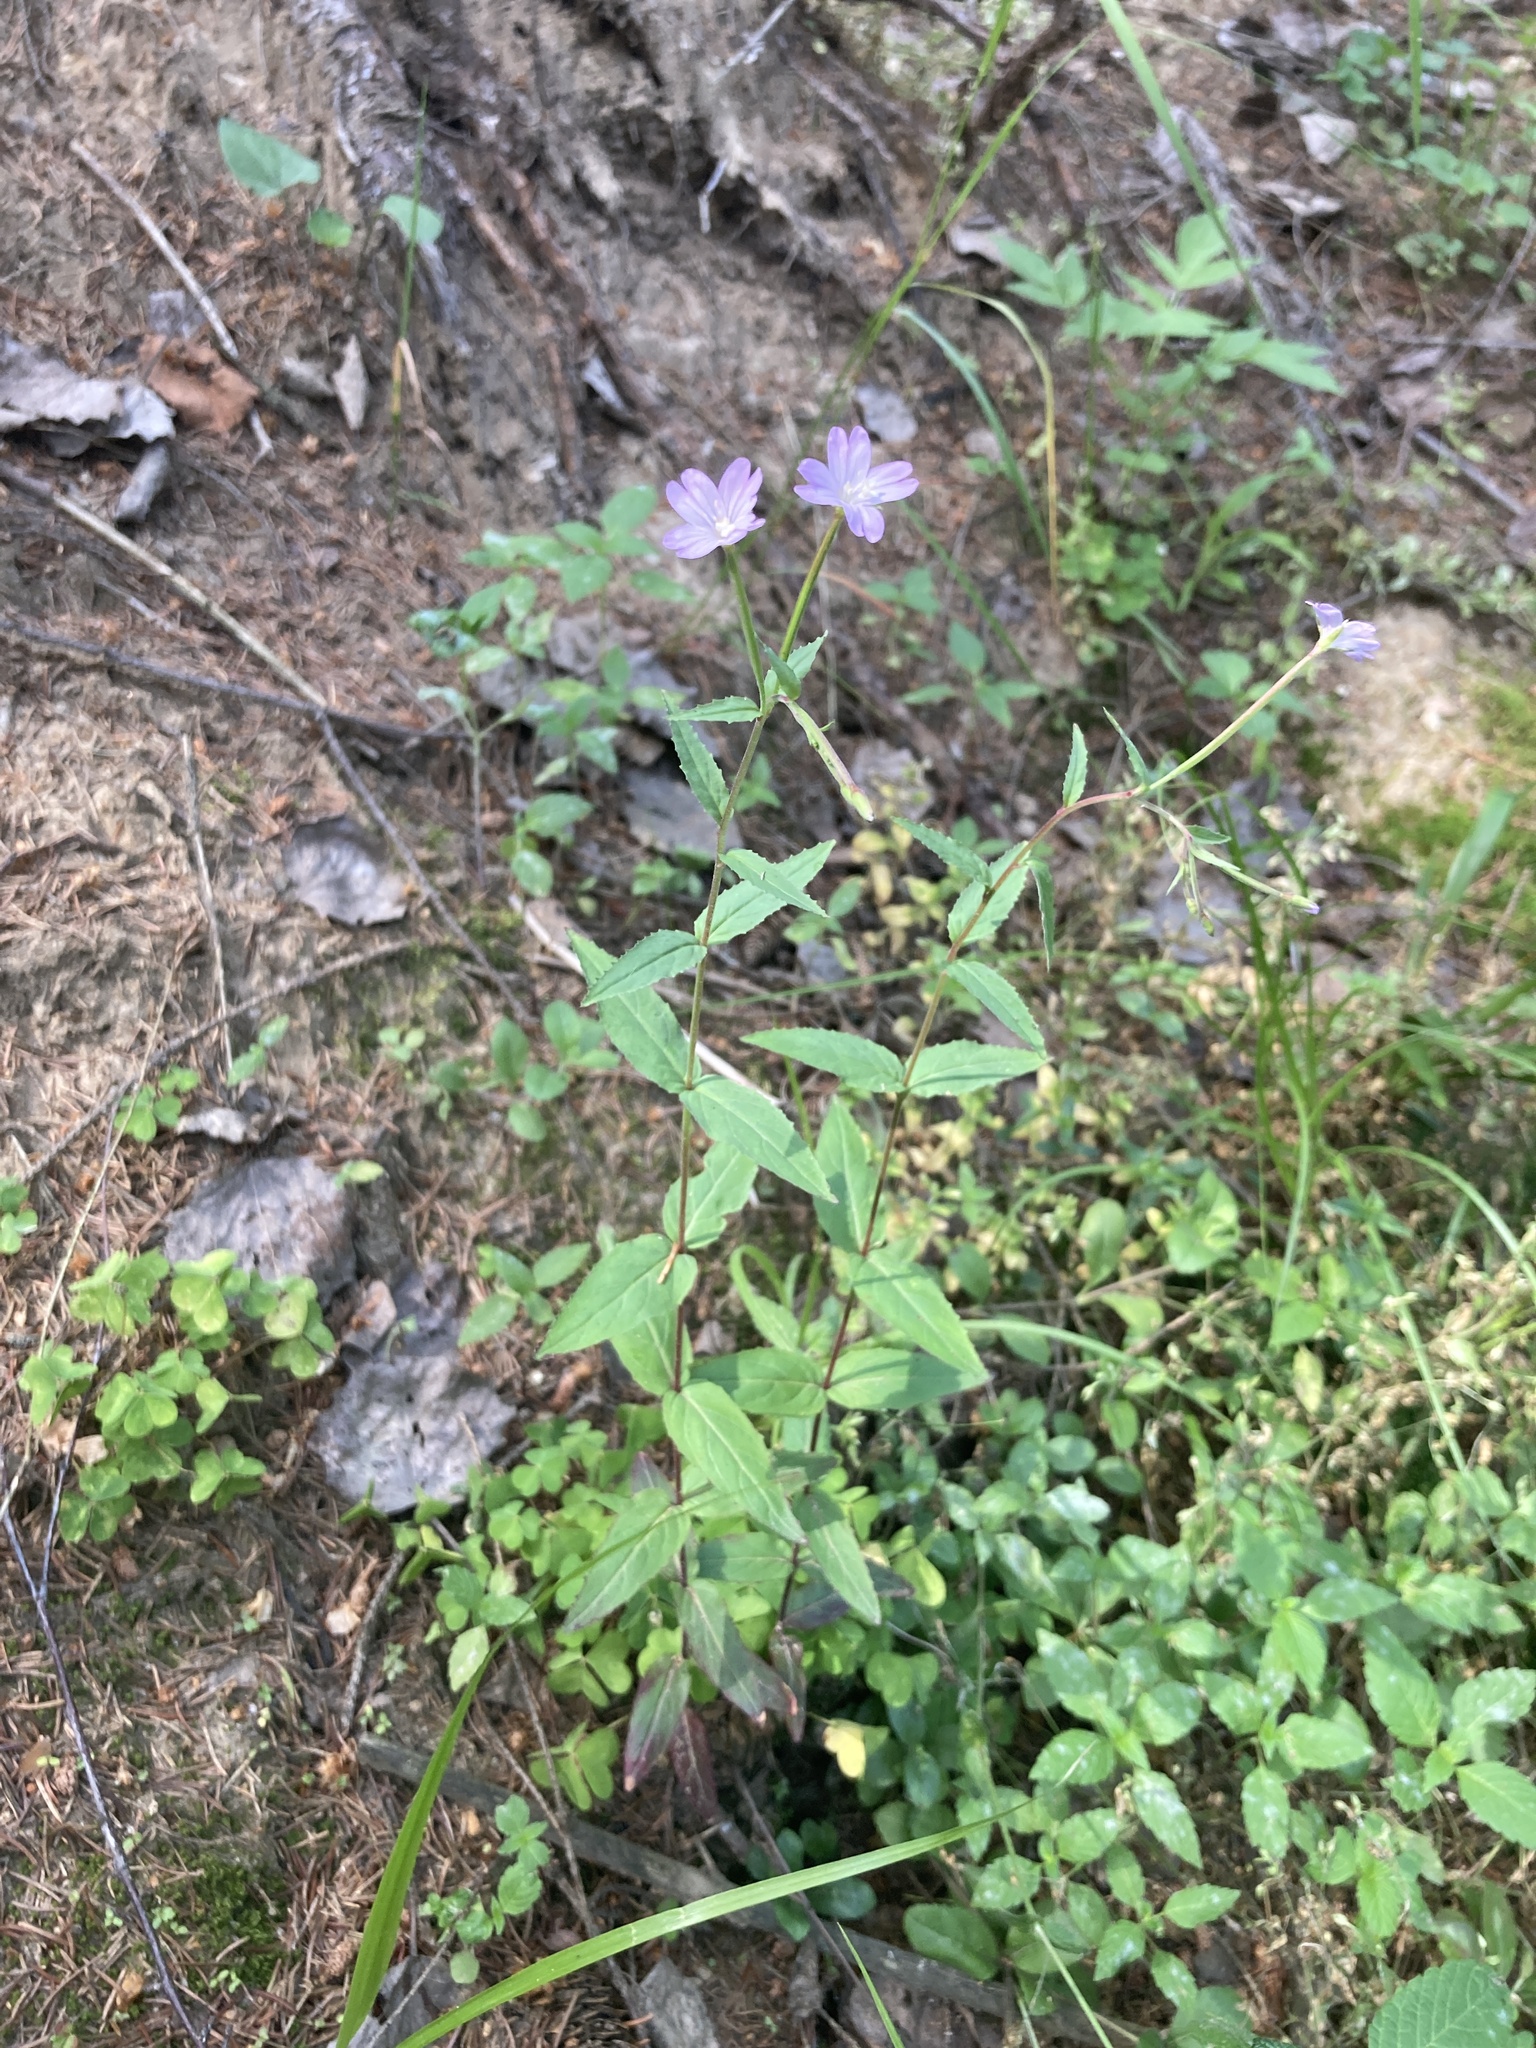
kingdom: Plantae
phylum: Tracheophyta
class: Magnoliopsida
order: Myrtales
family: Onagraceae
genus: Epilobium
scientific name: Epilobium montanum
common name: Broad-leaved willowherb
